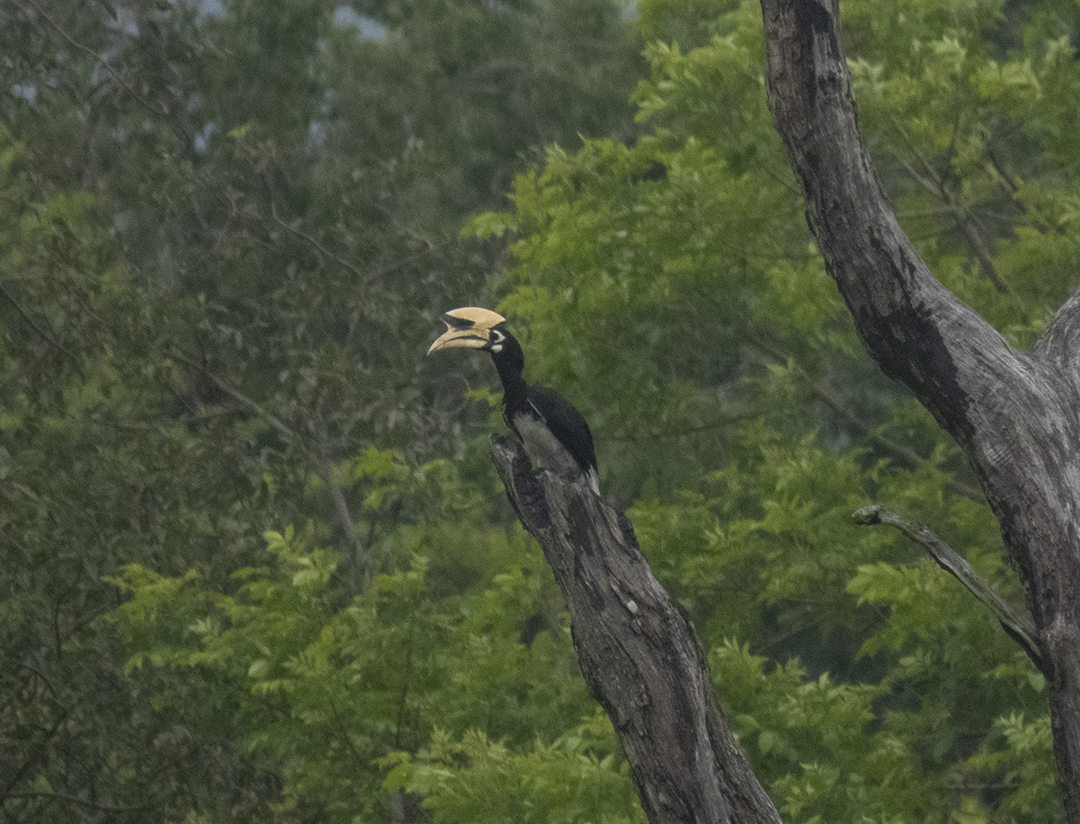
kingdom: Animalia
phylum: Chordata
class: Aves
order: Bucerotiformes
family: Bucerotidae
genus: Anthracoceros
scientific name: Anthracoceros albirostris
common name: Oriental pied-hornbill
